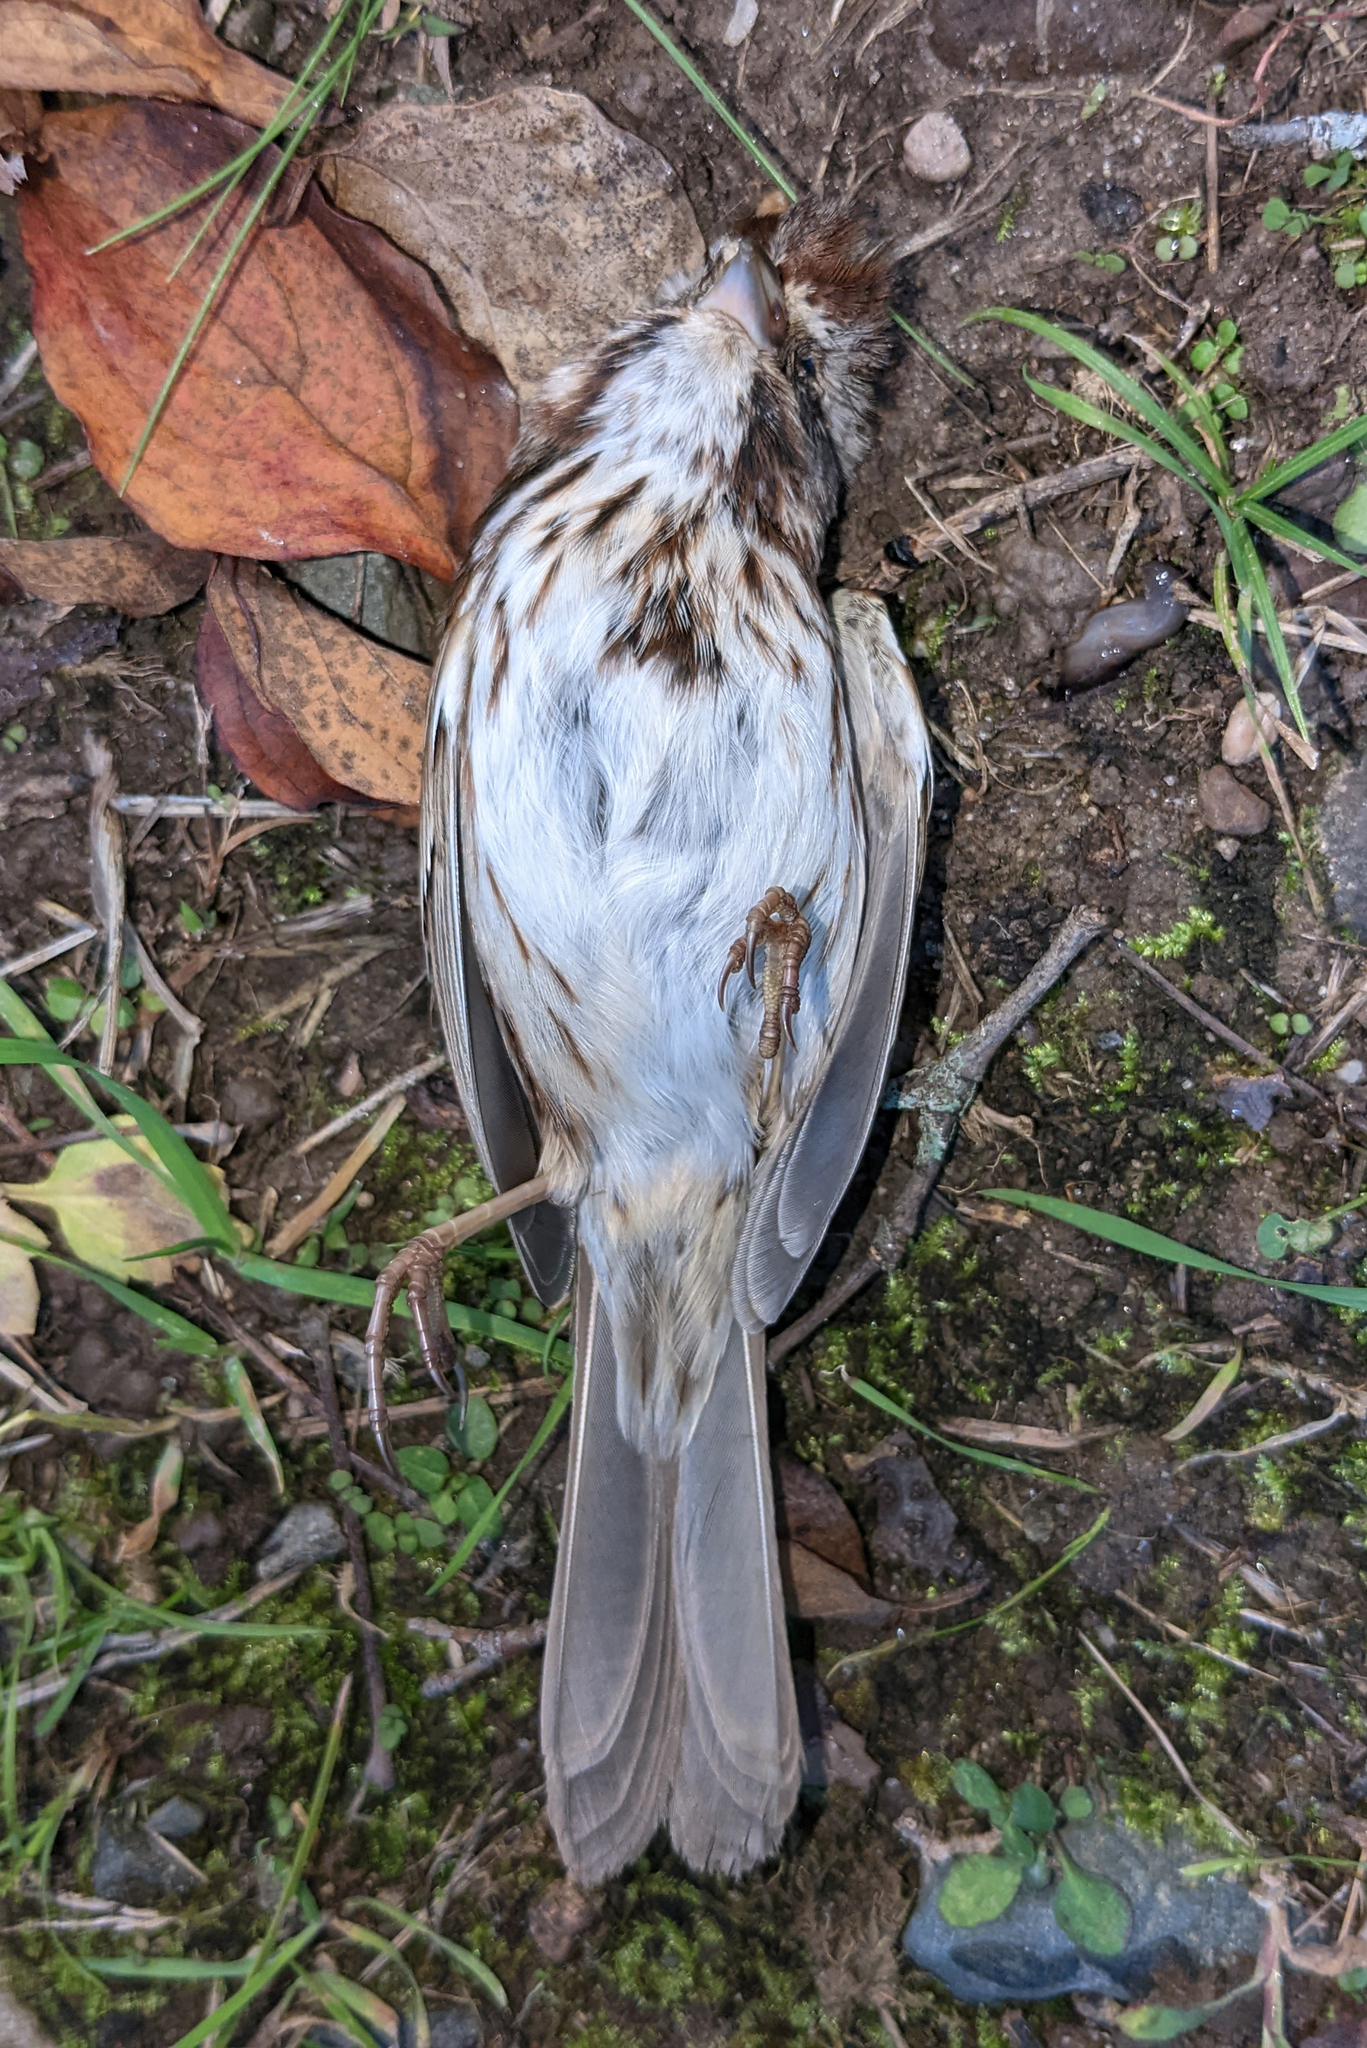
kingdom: Animalia
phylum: Chordata
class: Aves
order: Passeriformes
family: Passerellidae
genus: Melospiza
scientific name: Melospiza melodia
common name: Song sparrow
